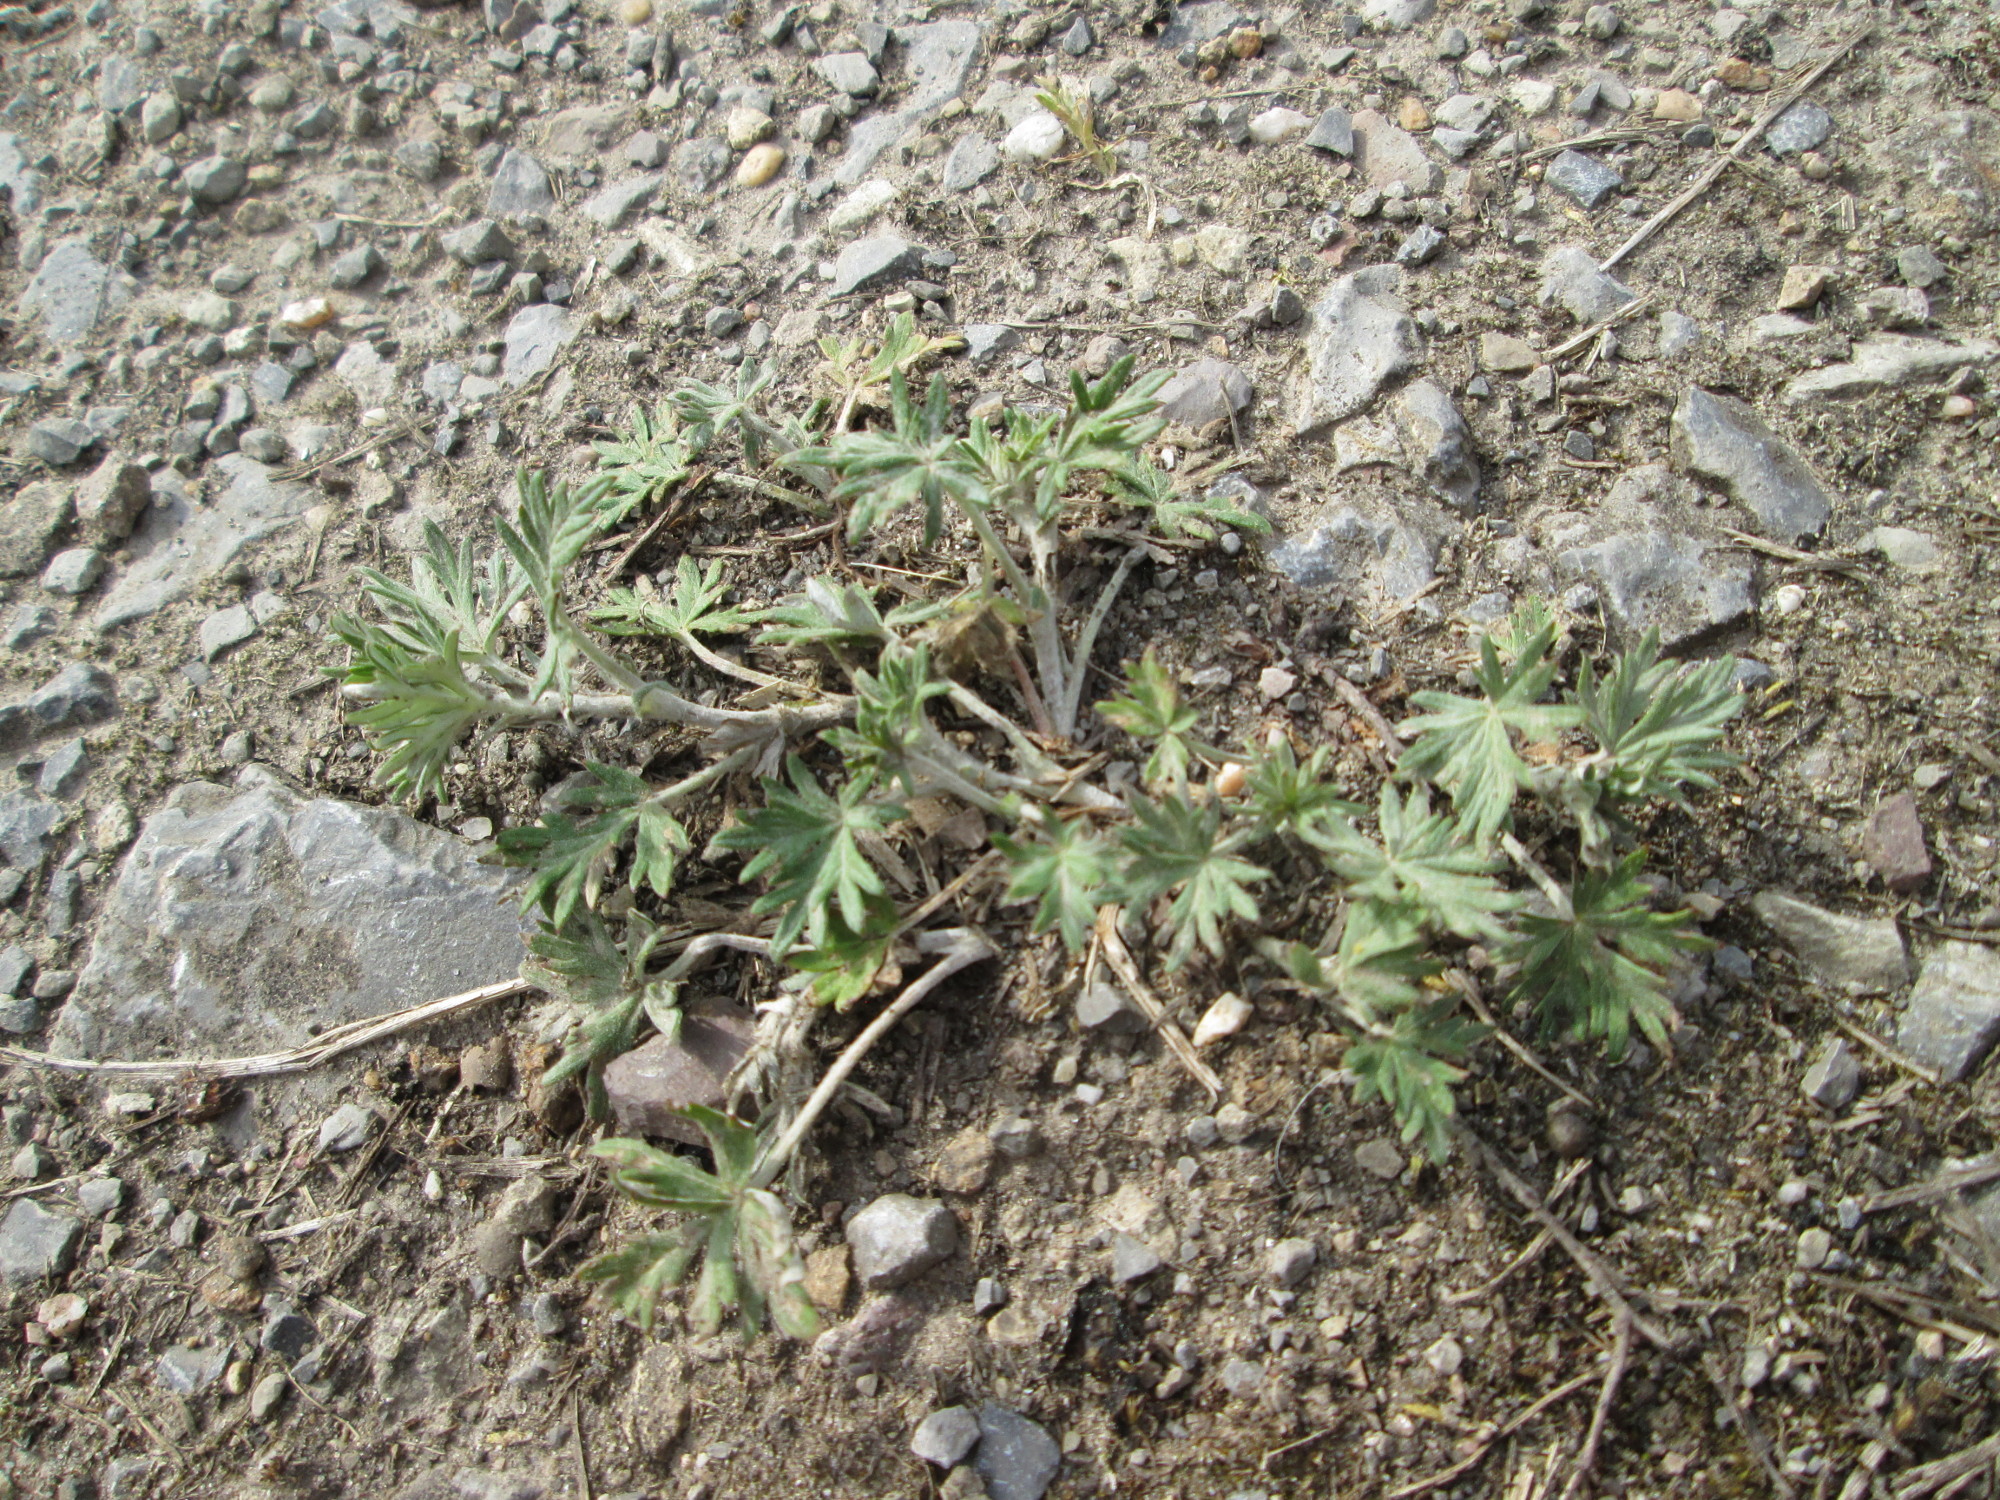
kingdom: Plantae
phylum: Tracheophyta
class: Magnoliopsida
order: Rosales
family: Rosaceae
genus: Potentilla
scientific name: Potentilla argentea
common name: Hoary cinquefoil
